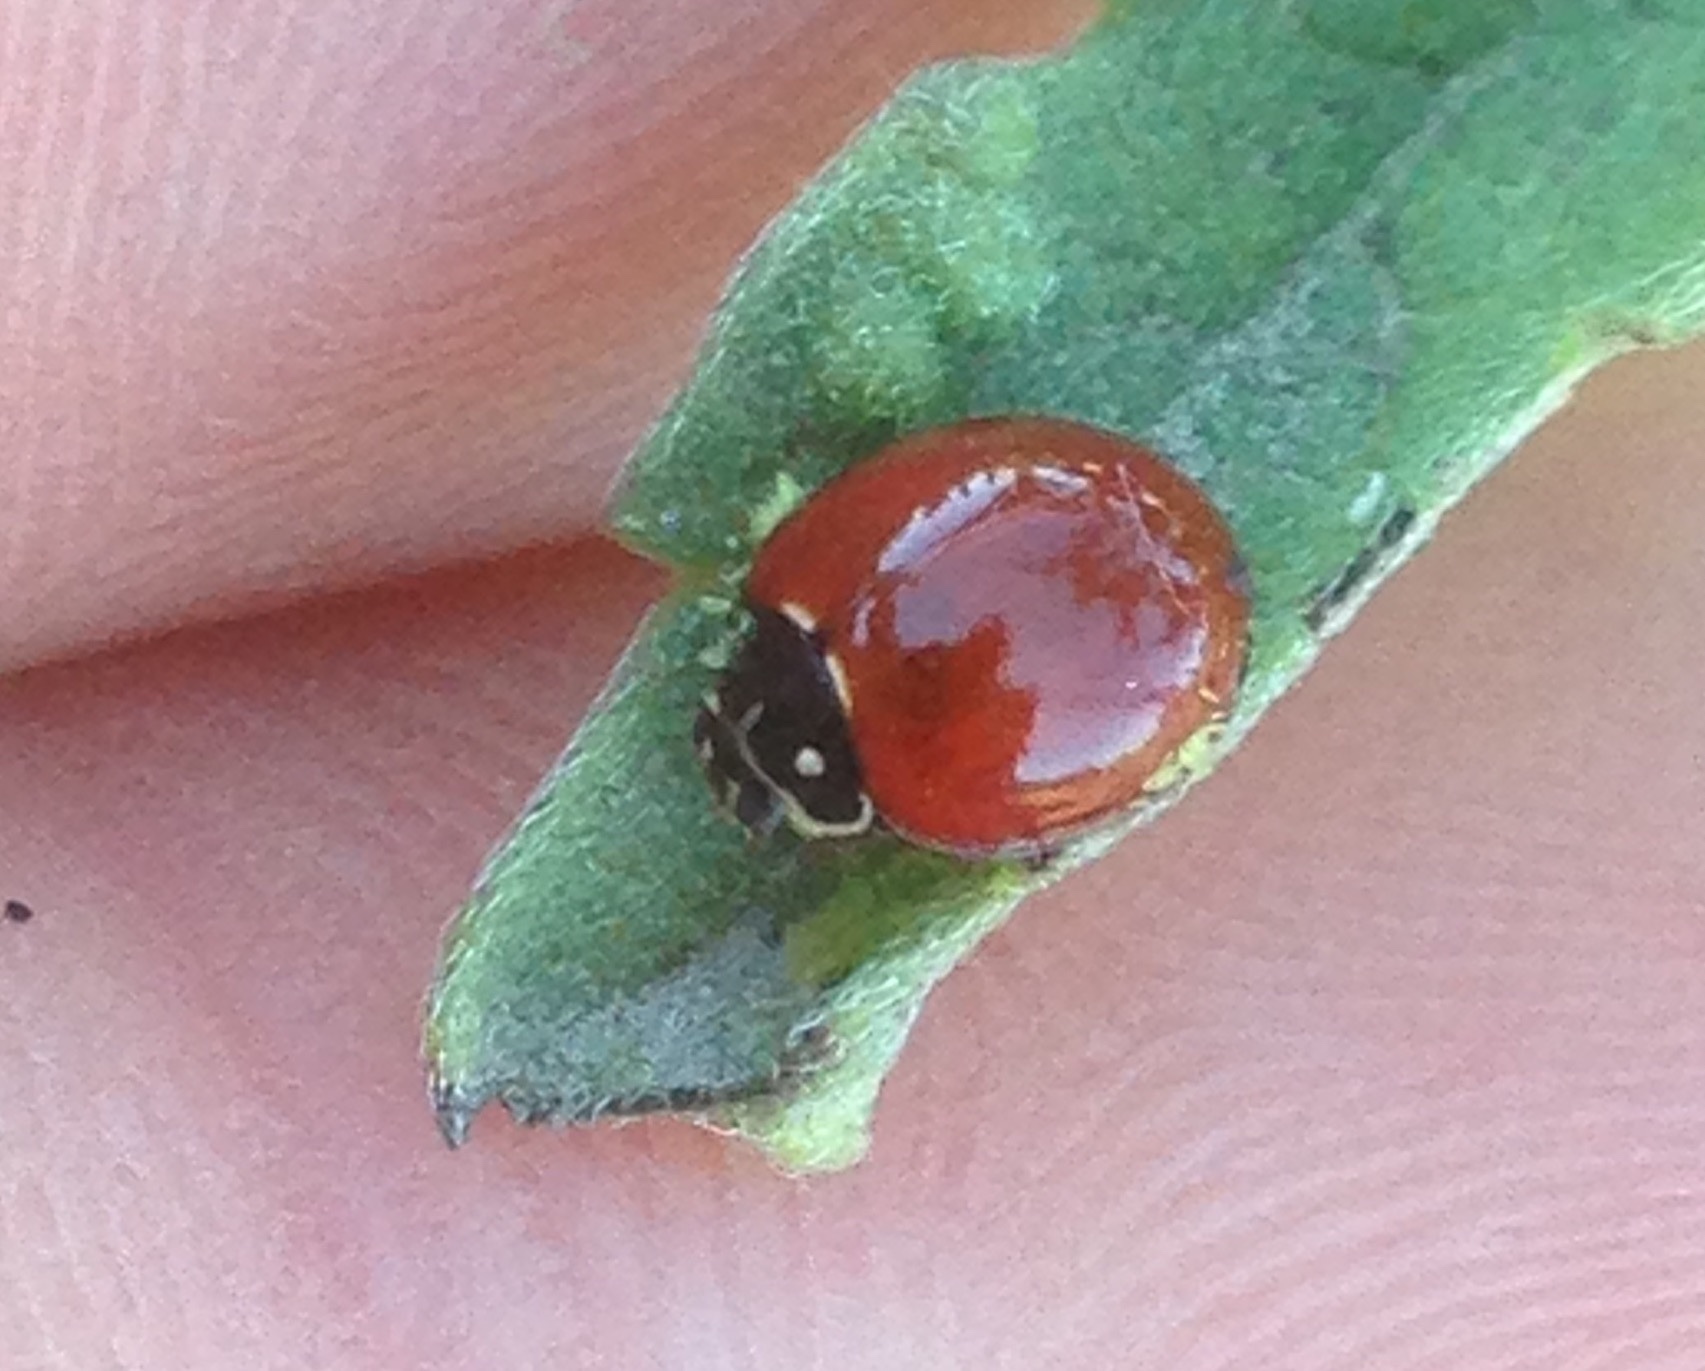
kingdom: Animalia
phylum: Arthropoda
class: Insecta
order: Coleoptera
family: Coccinellidae
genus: Cycloneda
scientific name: Cycloneda sanguinea
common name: Ladybird beetle
